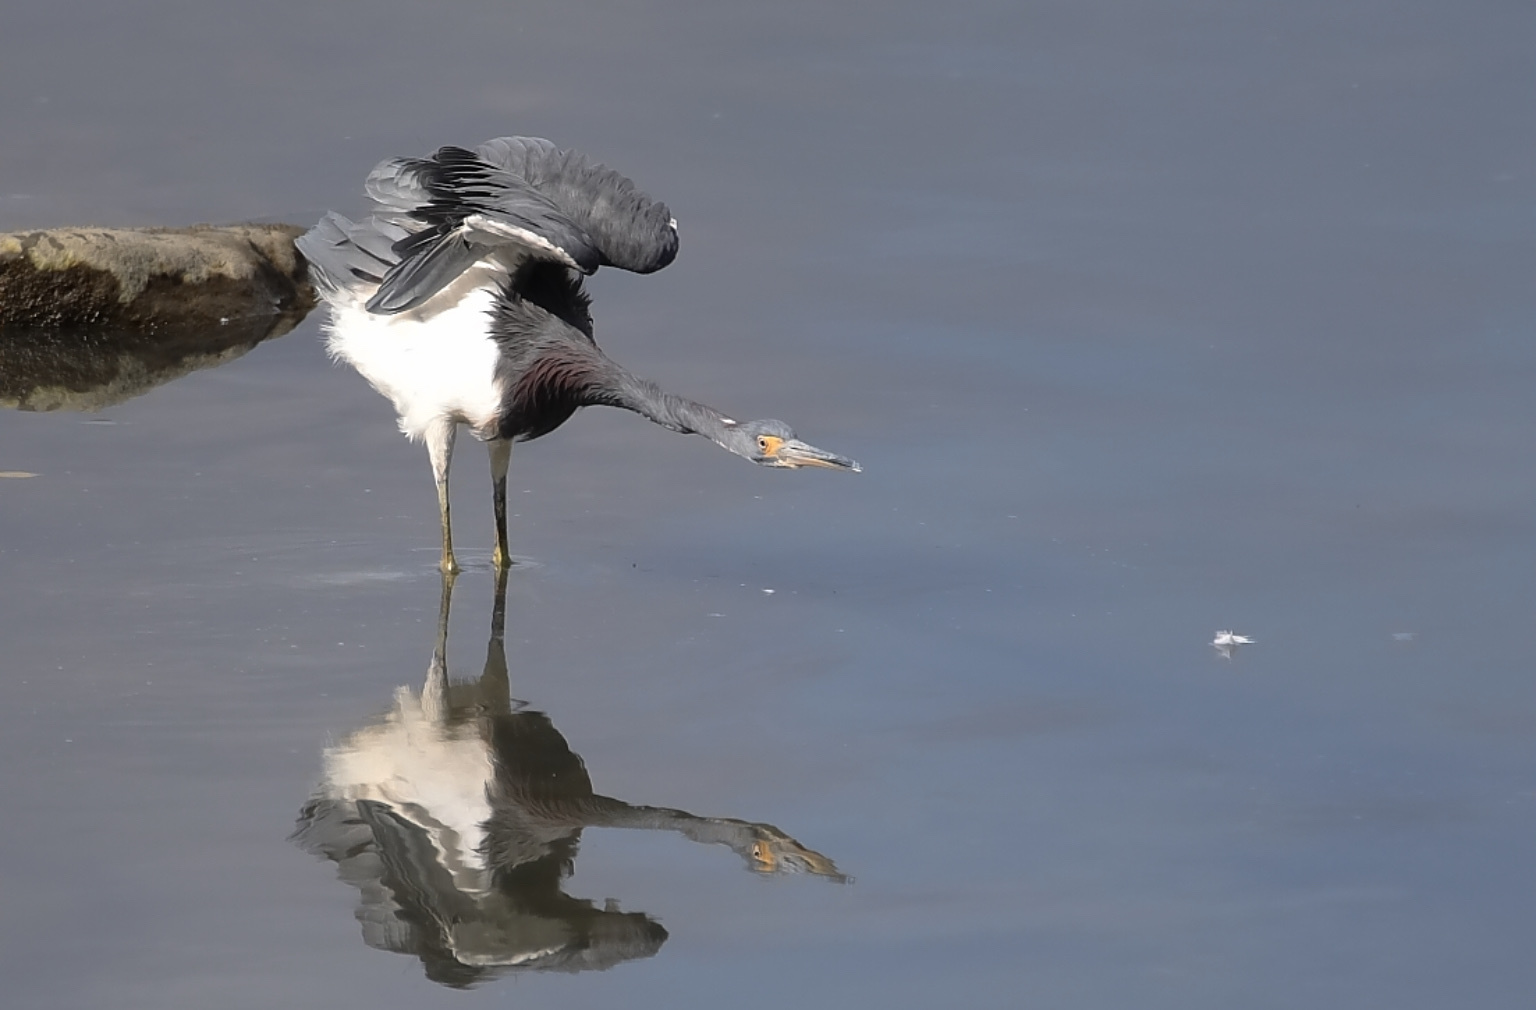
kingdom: Animalia
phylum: Chordata
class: Aves
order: Pelecaniformes
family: Ardeidae
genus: Egretta
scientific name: Egretta tricolor
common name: Tricolored heron
